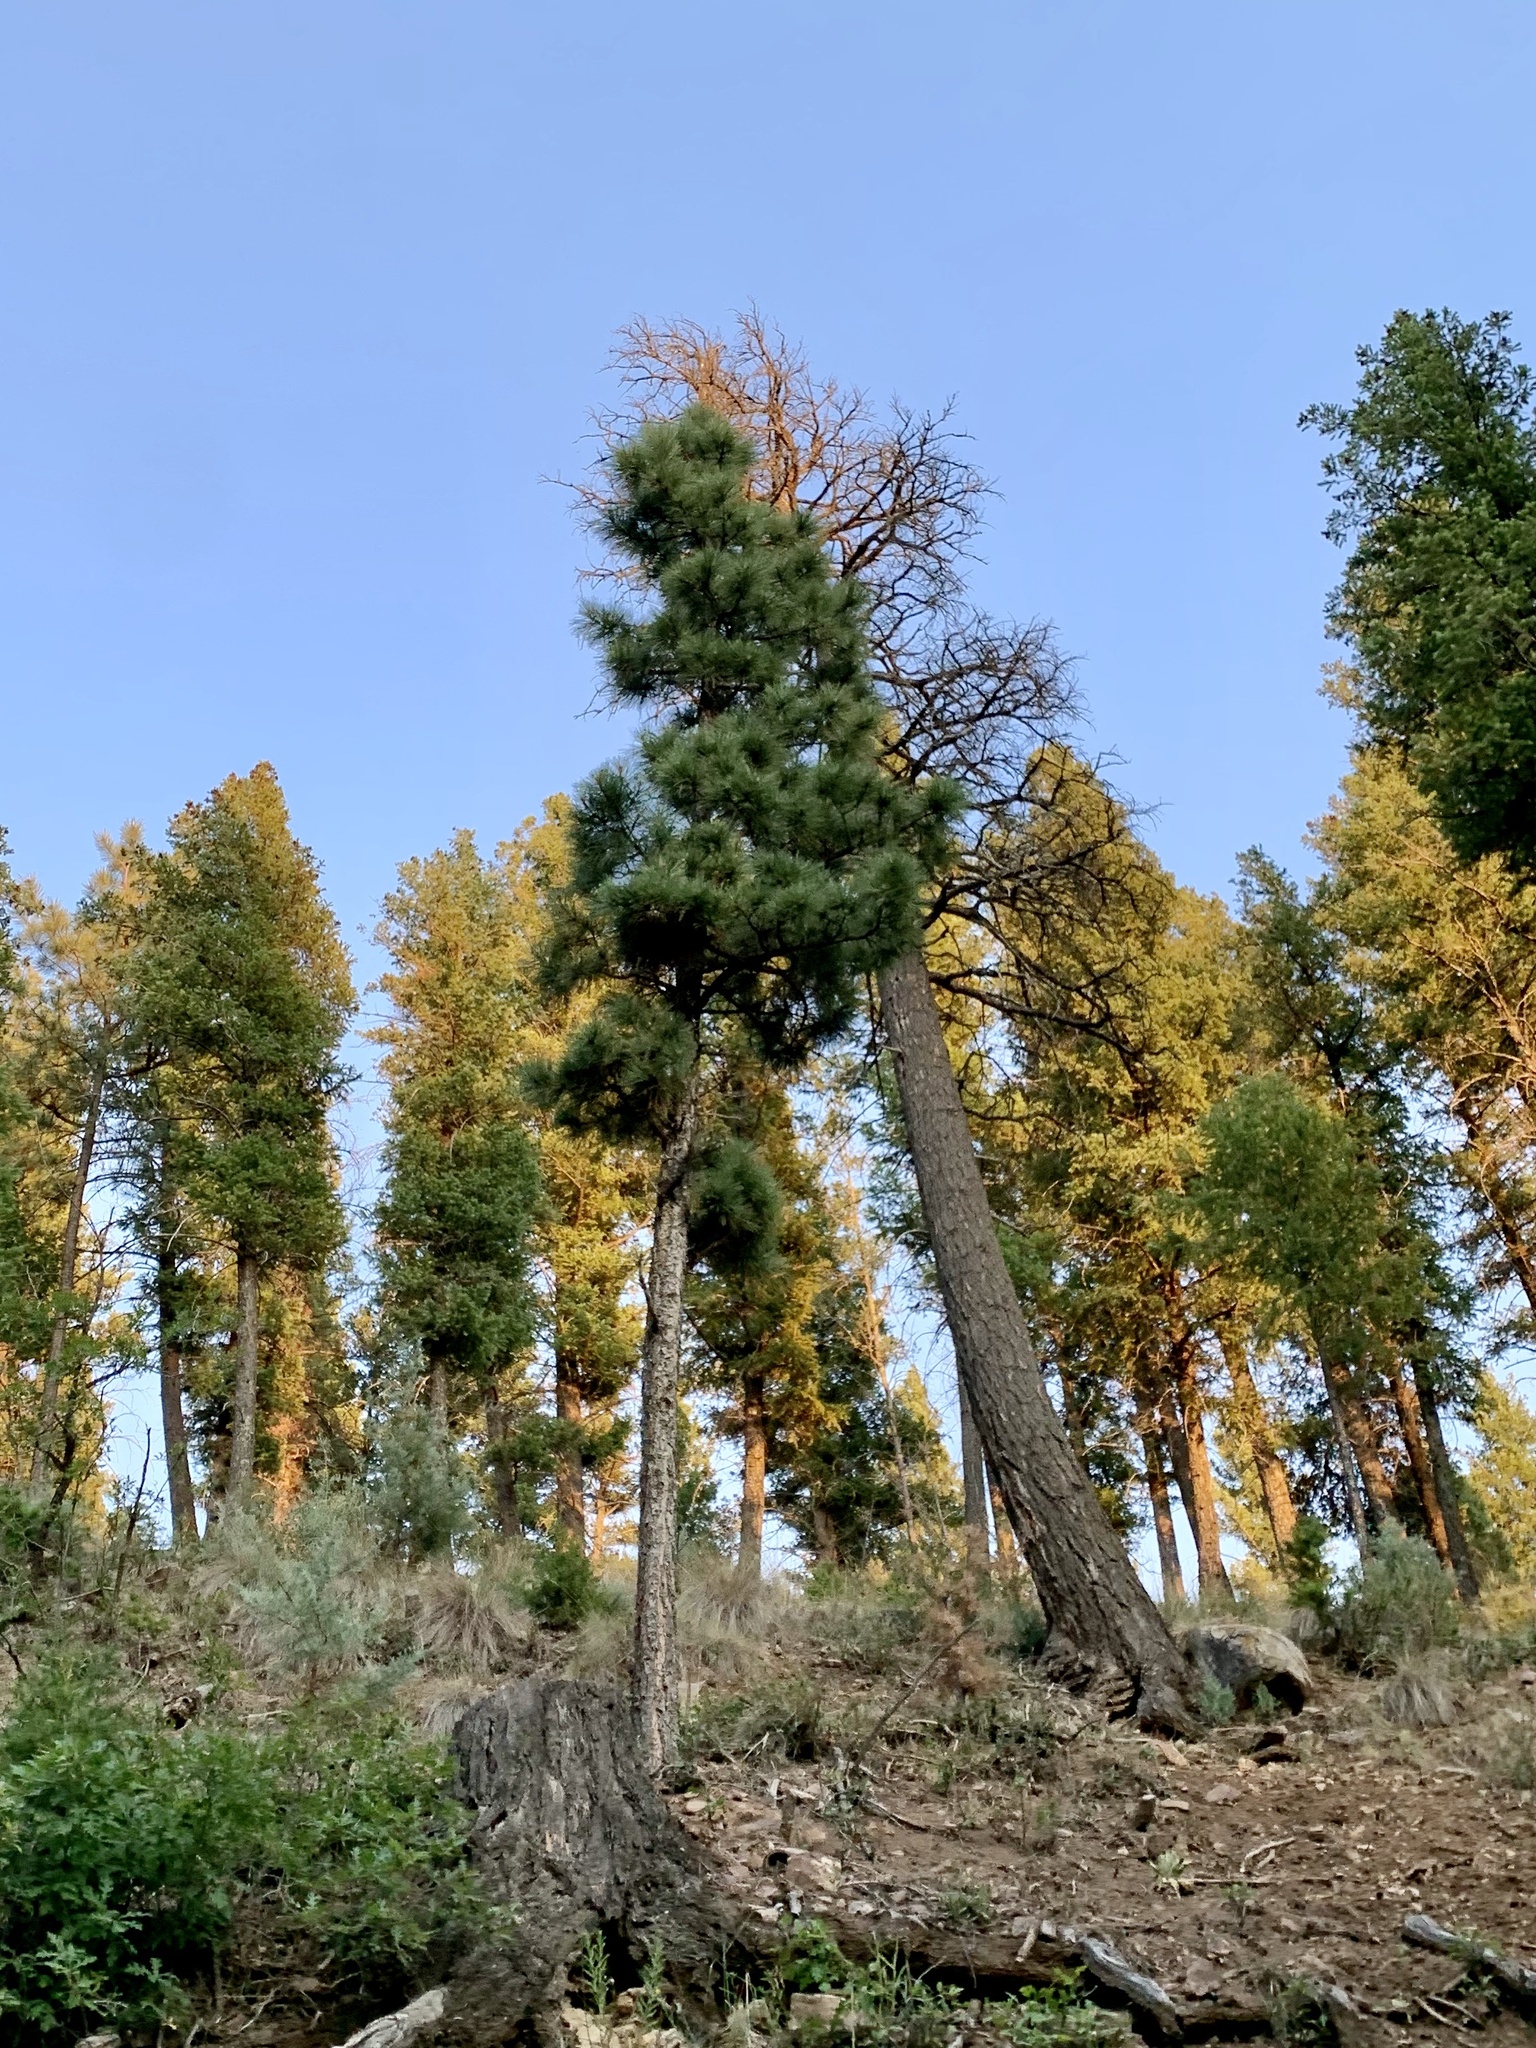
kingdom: Plantae
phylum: Tracheophyta
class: Pinopsida
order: Pinales
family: Pinaceae
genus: Pinus
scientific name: Pinus ponderosa
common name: Western yellow-pine
